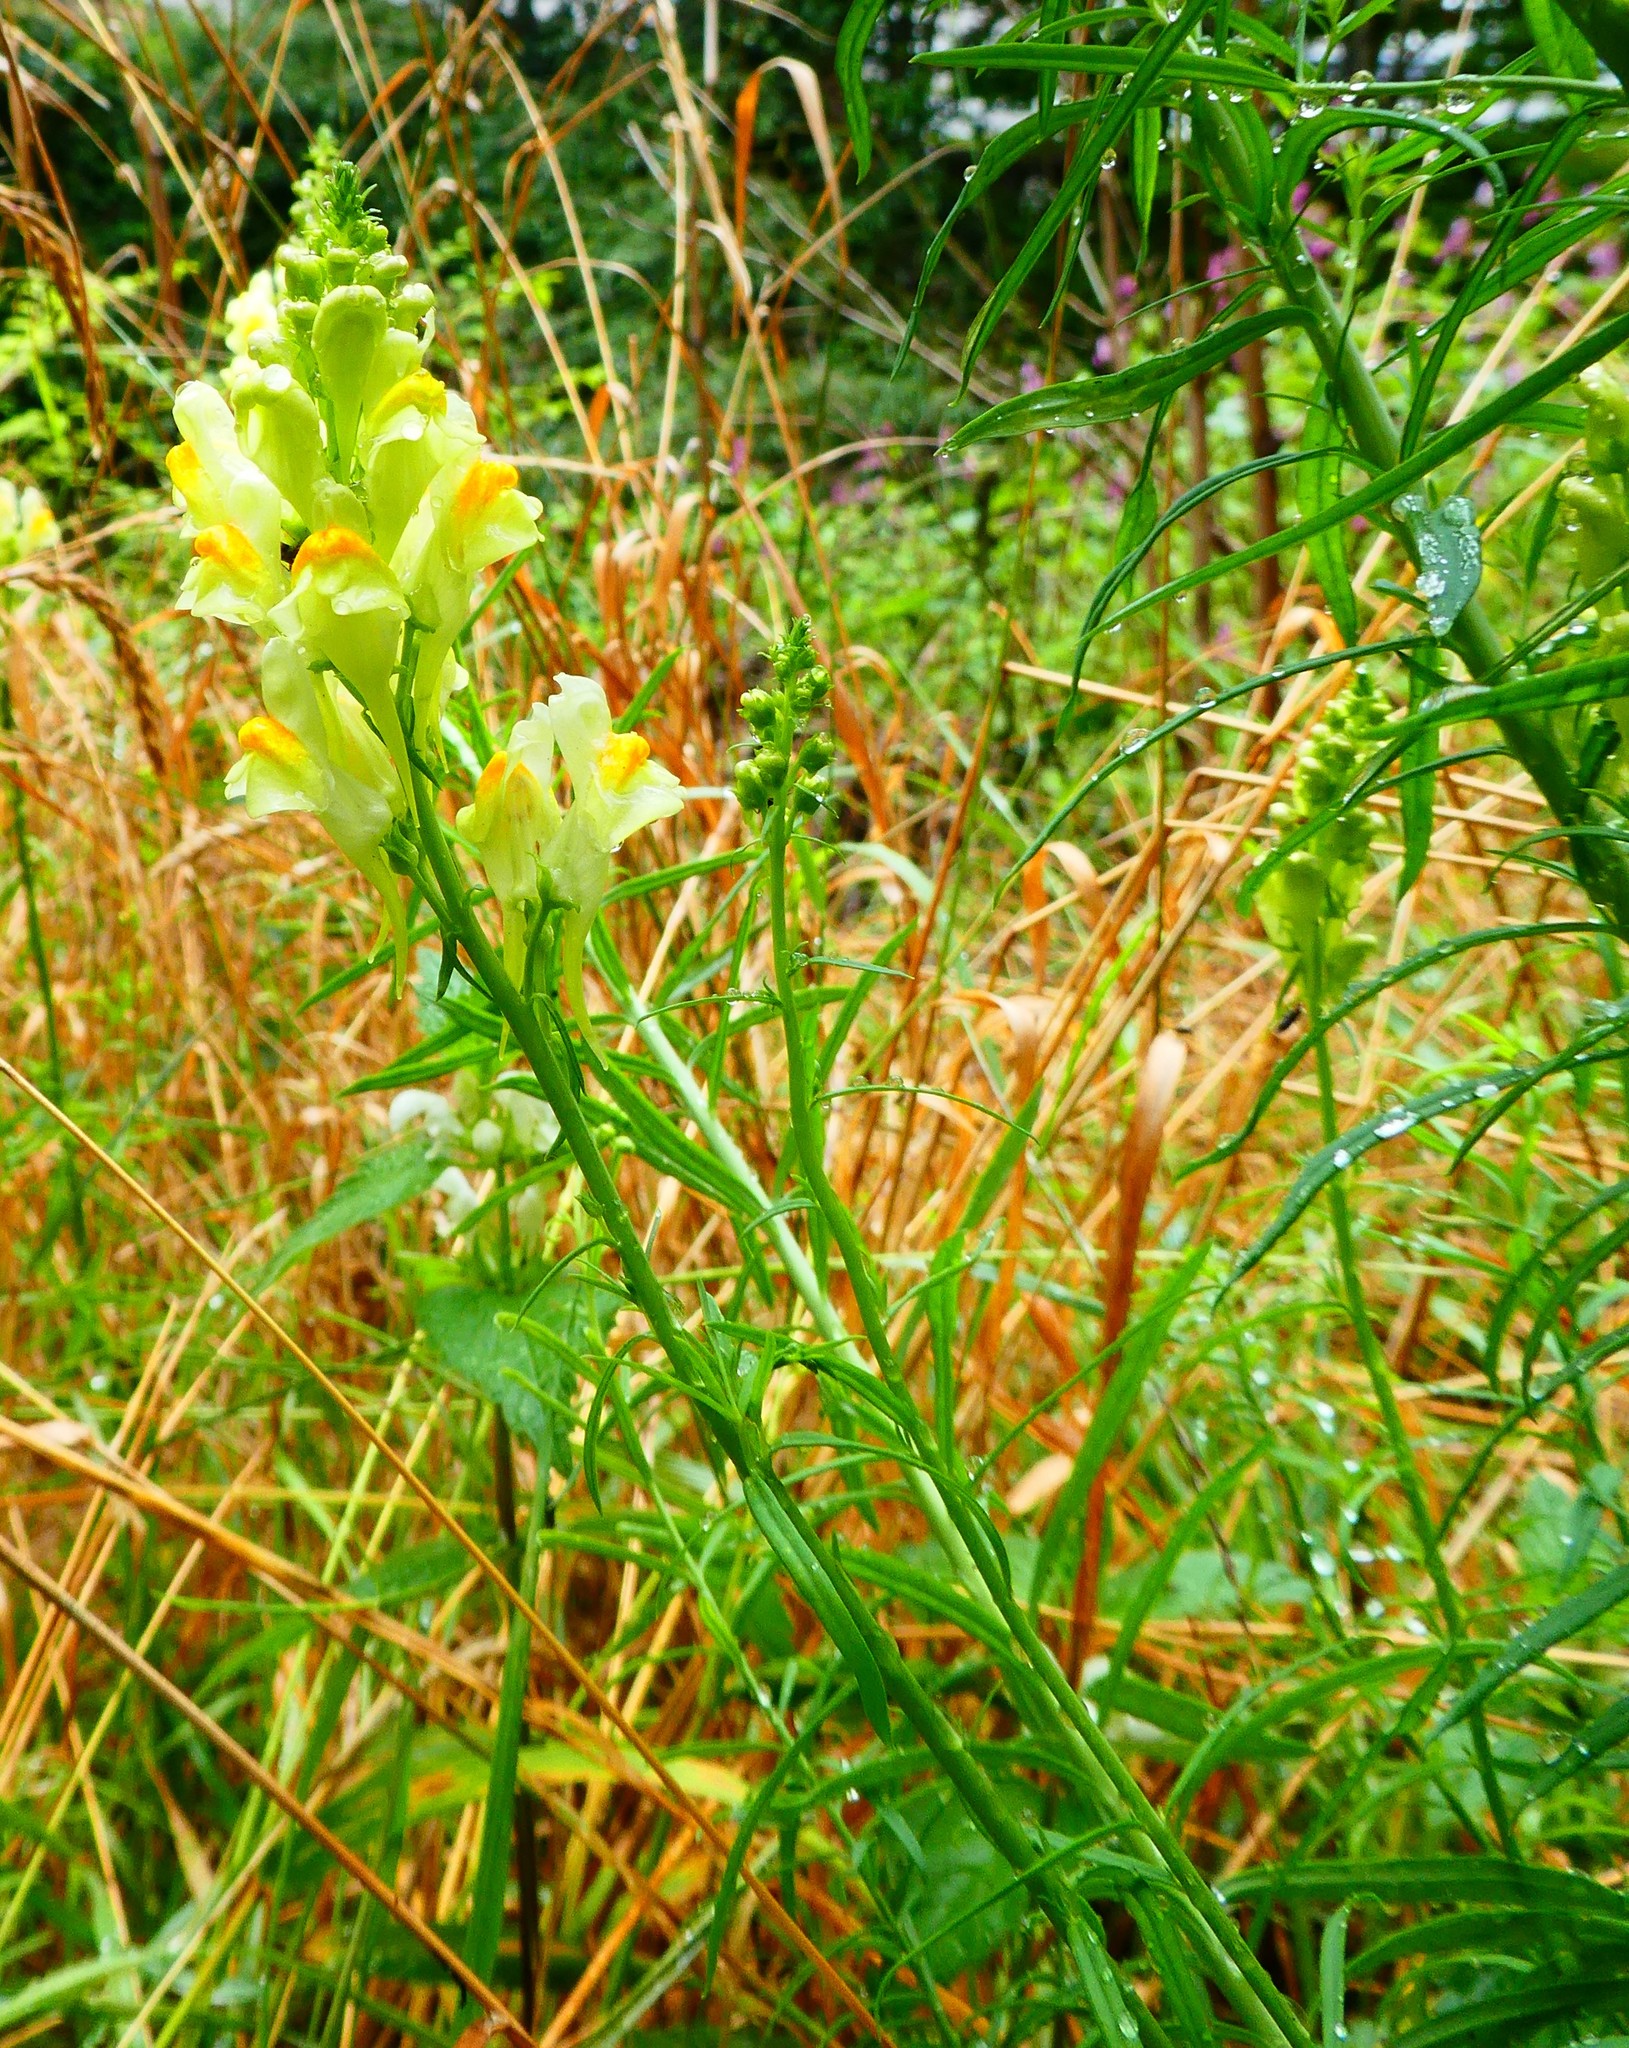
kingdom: Plantae
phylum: Tracheophyta
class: Magnoliopsida
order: Lamiales
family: Plantaginaceae
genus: Linaria
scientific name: Linaria vulgaris
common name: Butter and eggs
